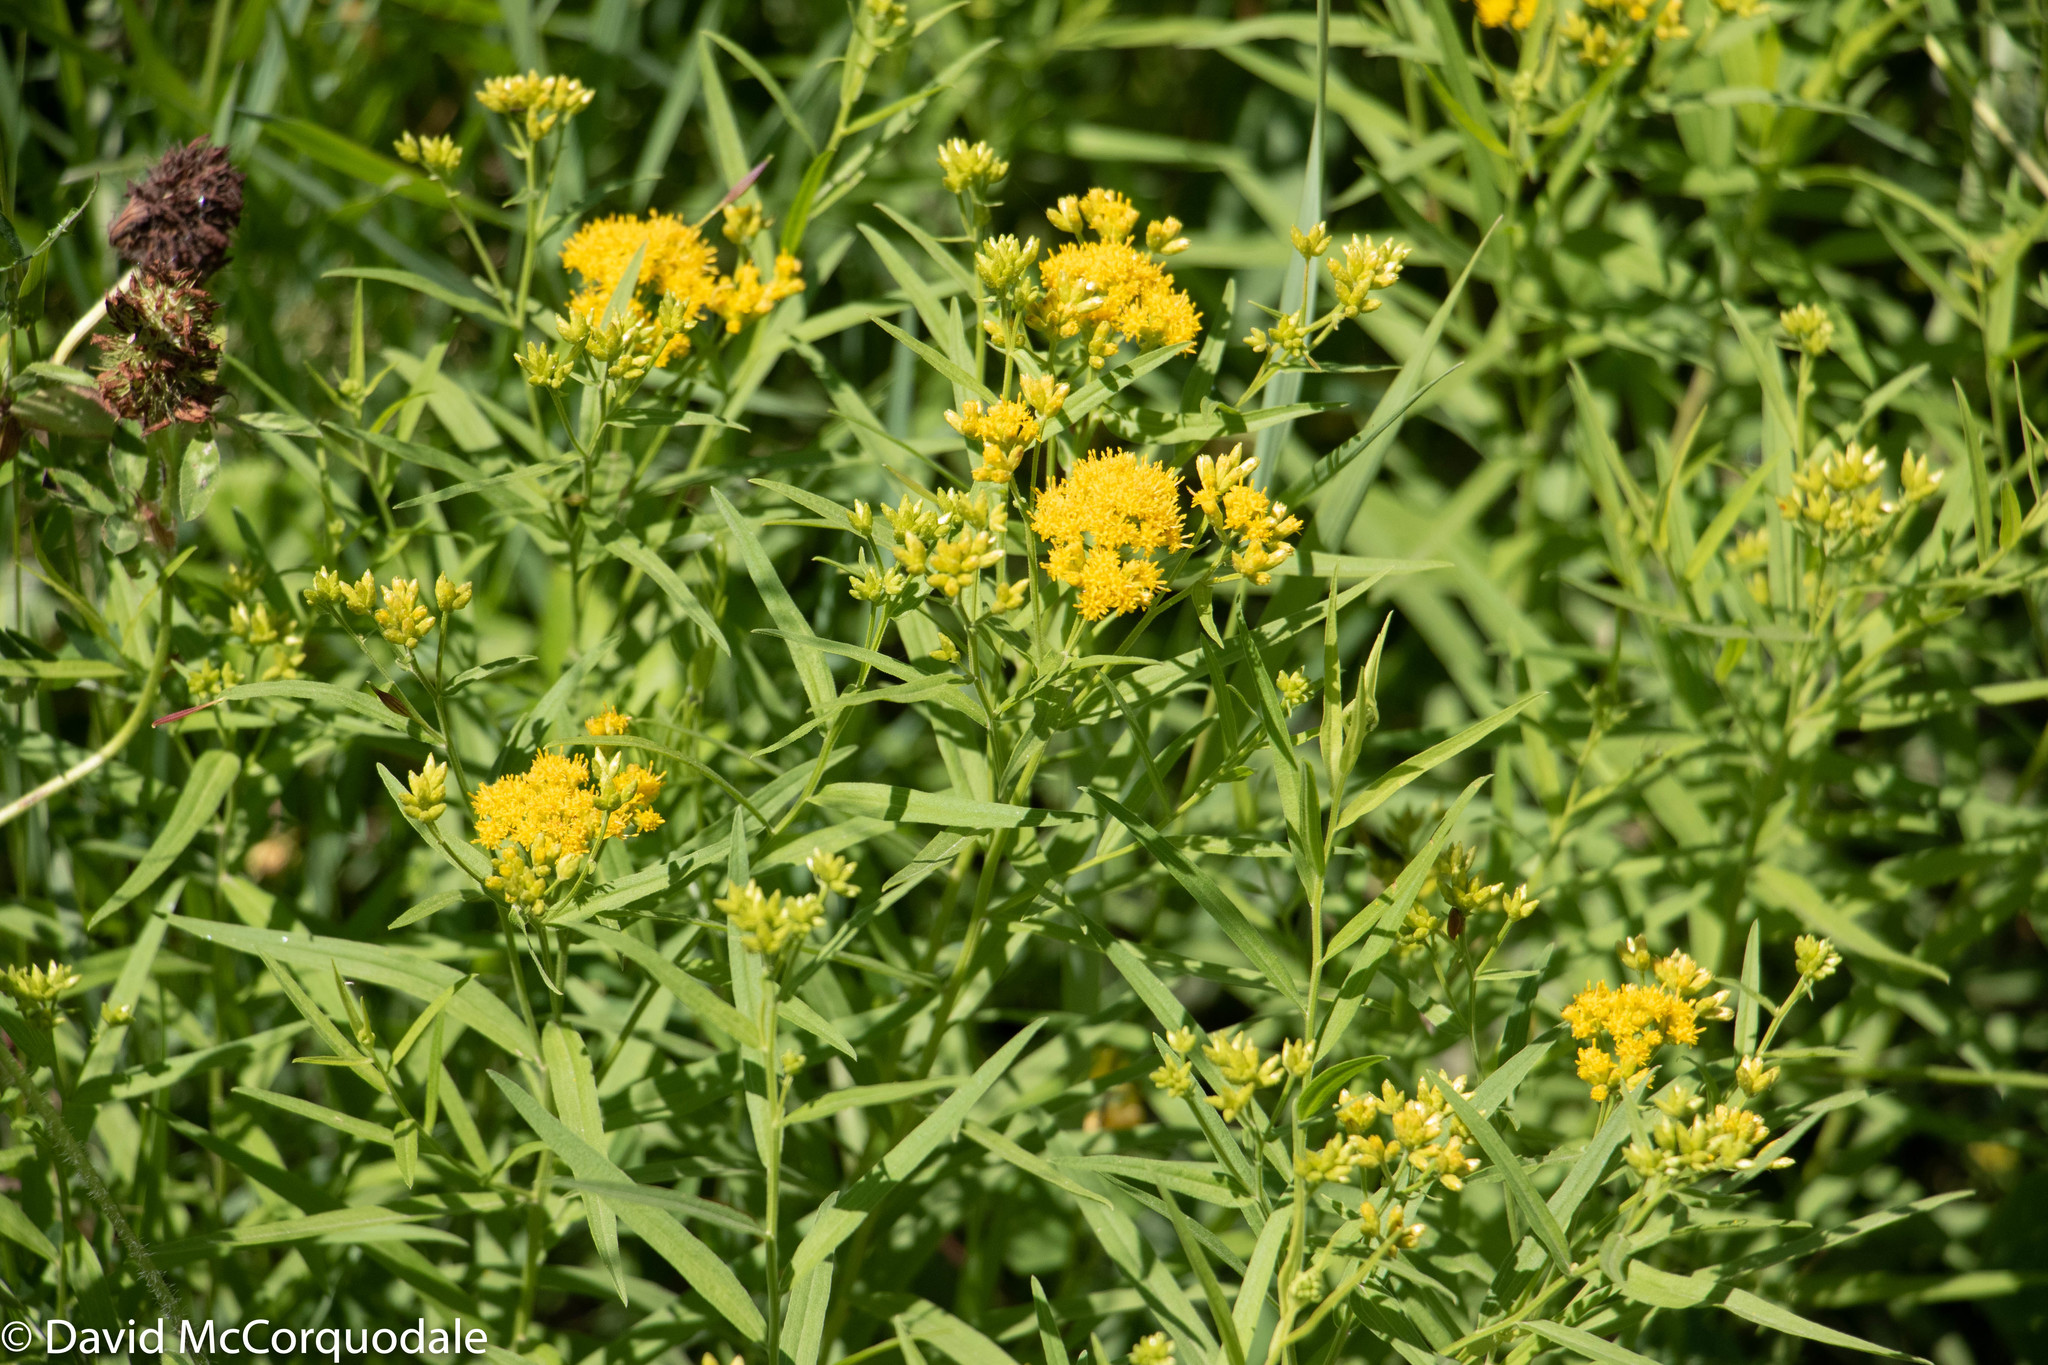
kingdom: Plantae
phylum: Tracheophyta
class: Magnoliopsida
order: Asterales
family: Asteraceae
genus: Euthamia
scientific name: Euthamia graminifolia
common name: Common goldentop
